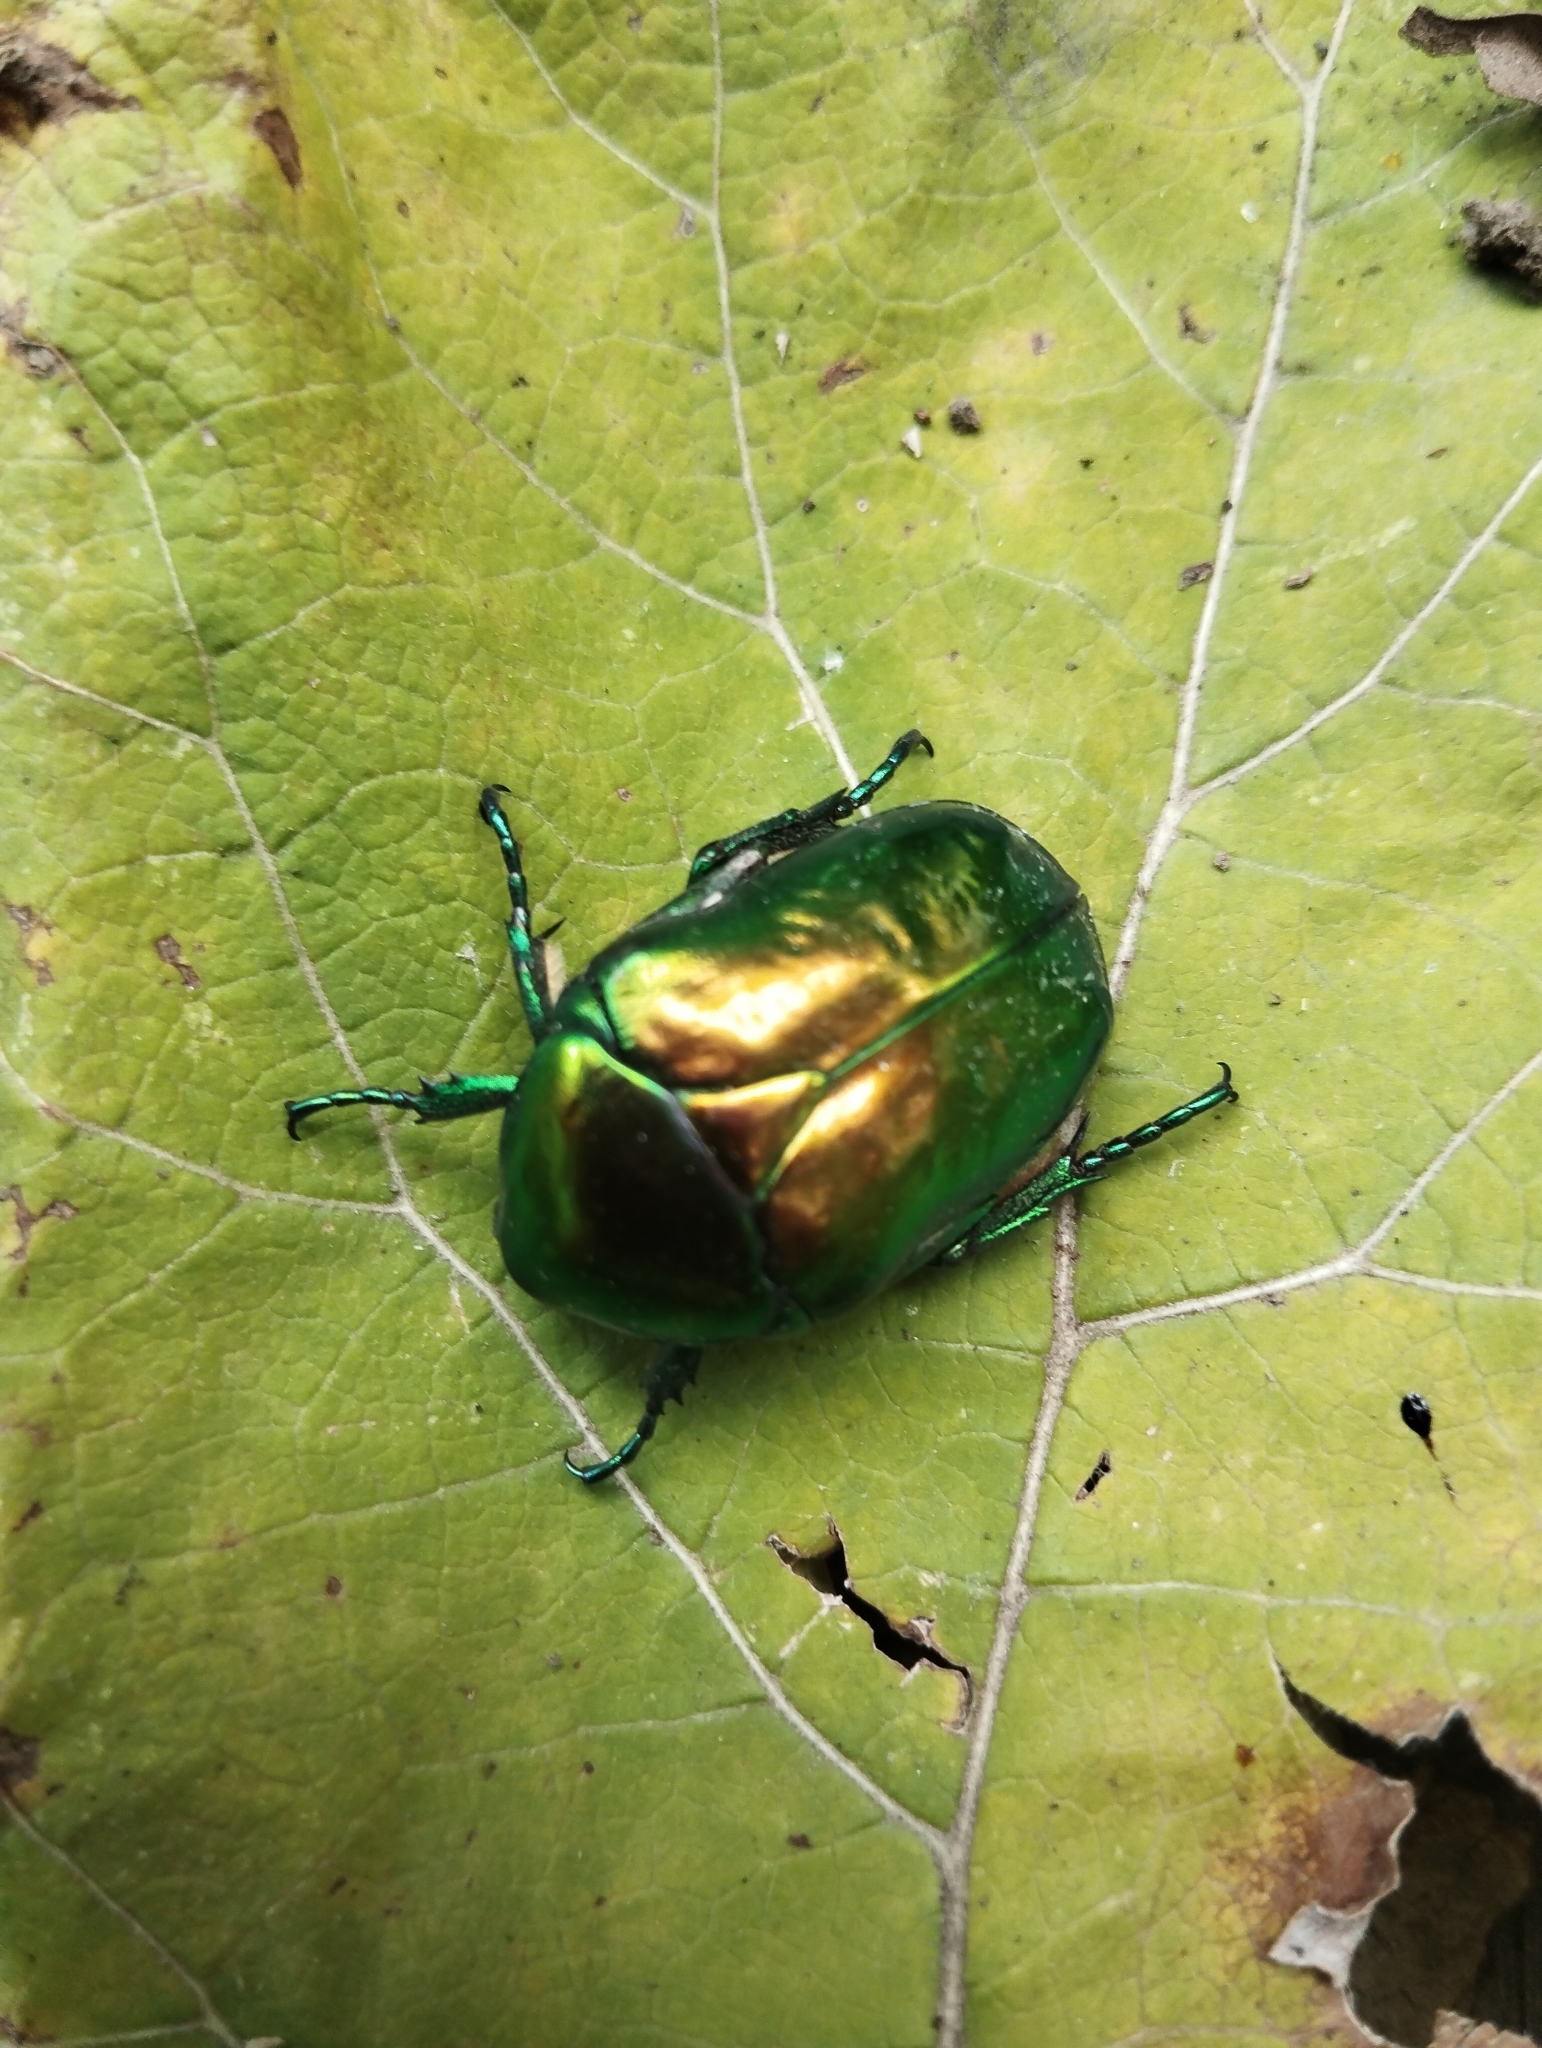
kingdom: Animalia
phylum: Arthropoda
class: Insecta
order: Coleoptera
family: Scarabaeidae
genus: Protaetia
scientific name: Protaetia speciosissima
